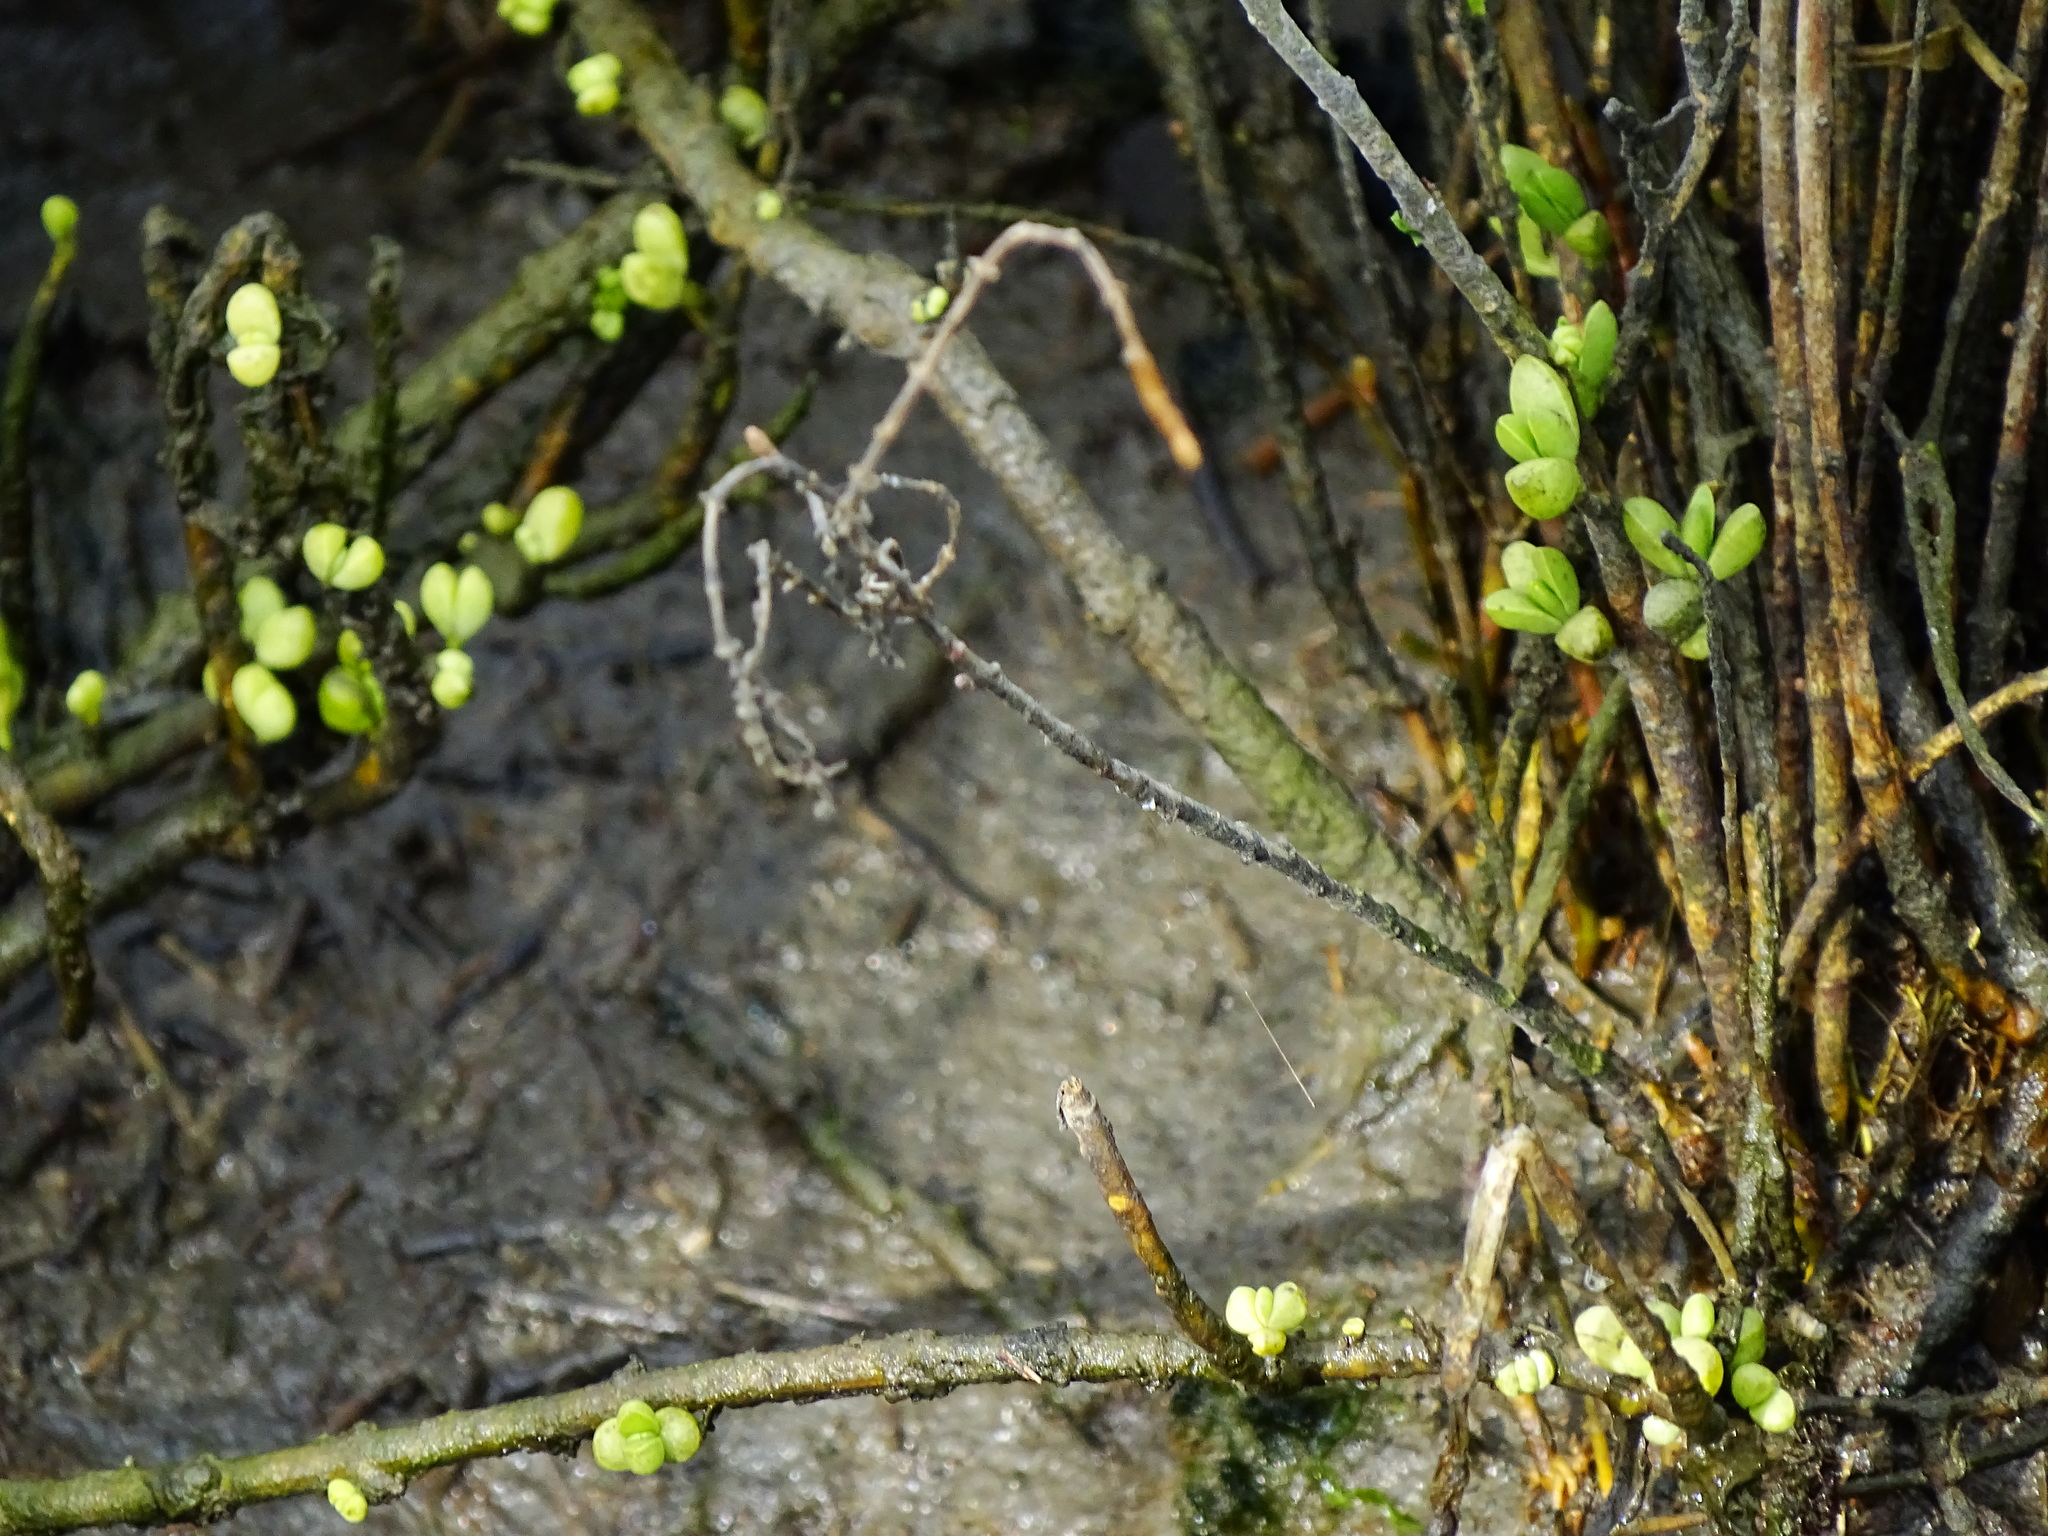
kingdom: Plantae
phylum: Tracheophyta
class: Magnoliopsida
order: Brassicales
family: Bataceae
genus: Batis
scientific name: Batis maritima
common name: Turtleweed
